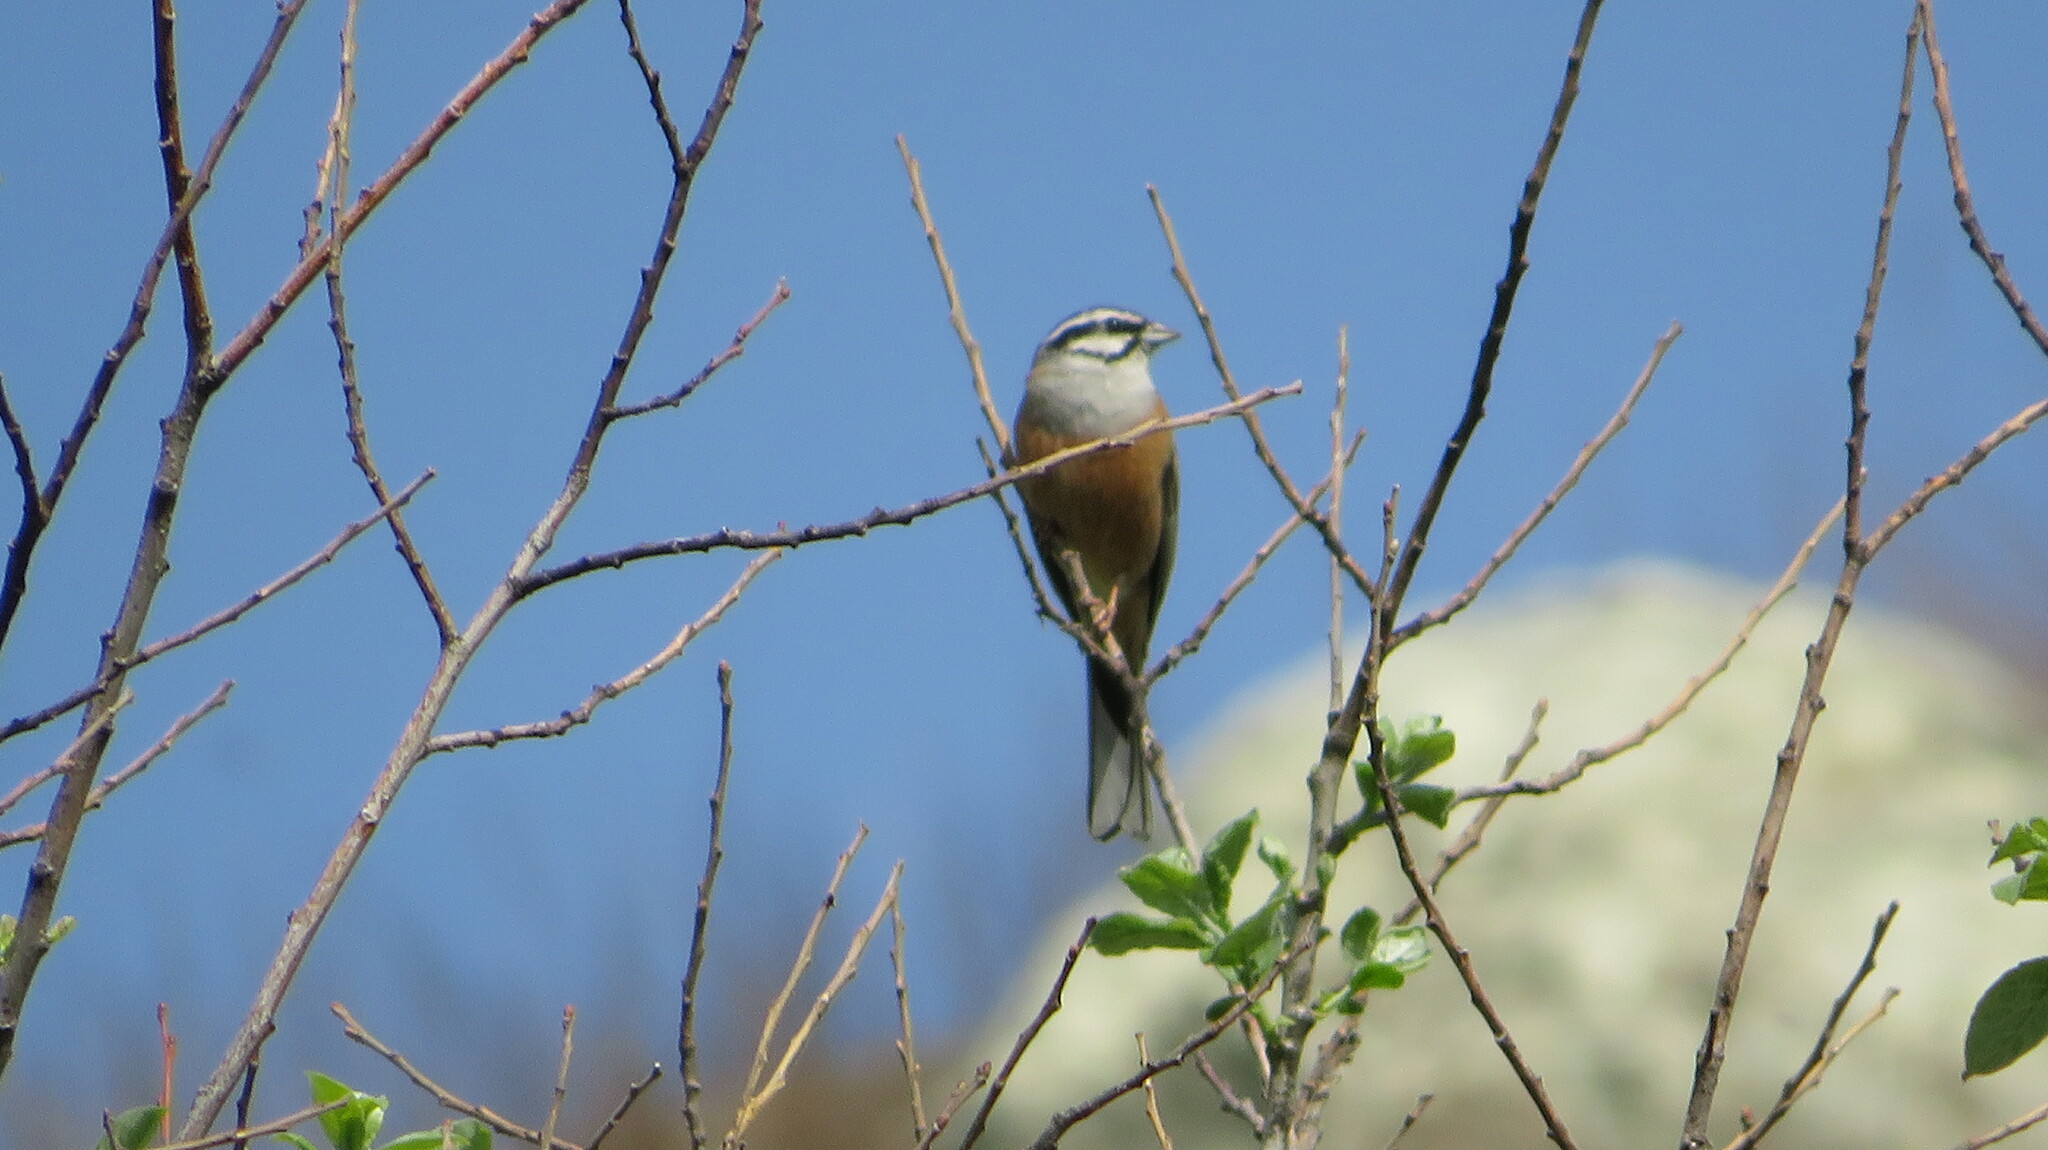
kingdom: Animalia
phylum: Chordata
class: Aves
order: Passeriformes
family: Emberizidae
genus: Emberiza
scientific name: Emberiza cia
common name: Rock bunting
